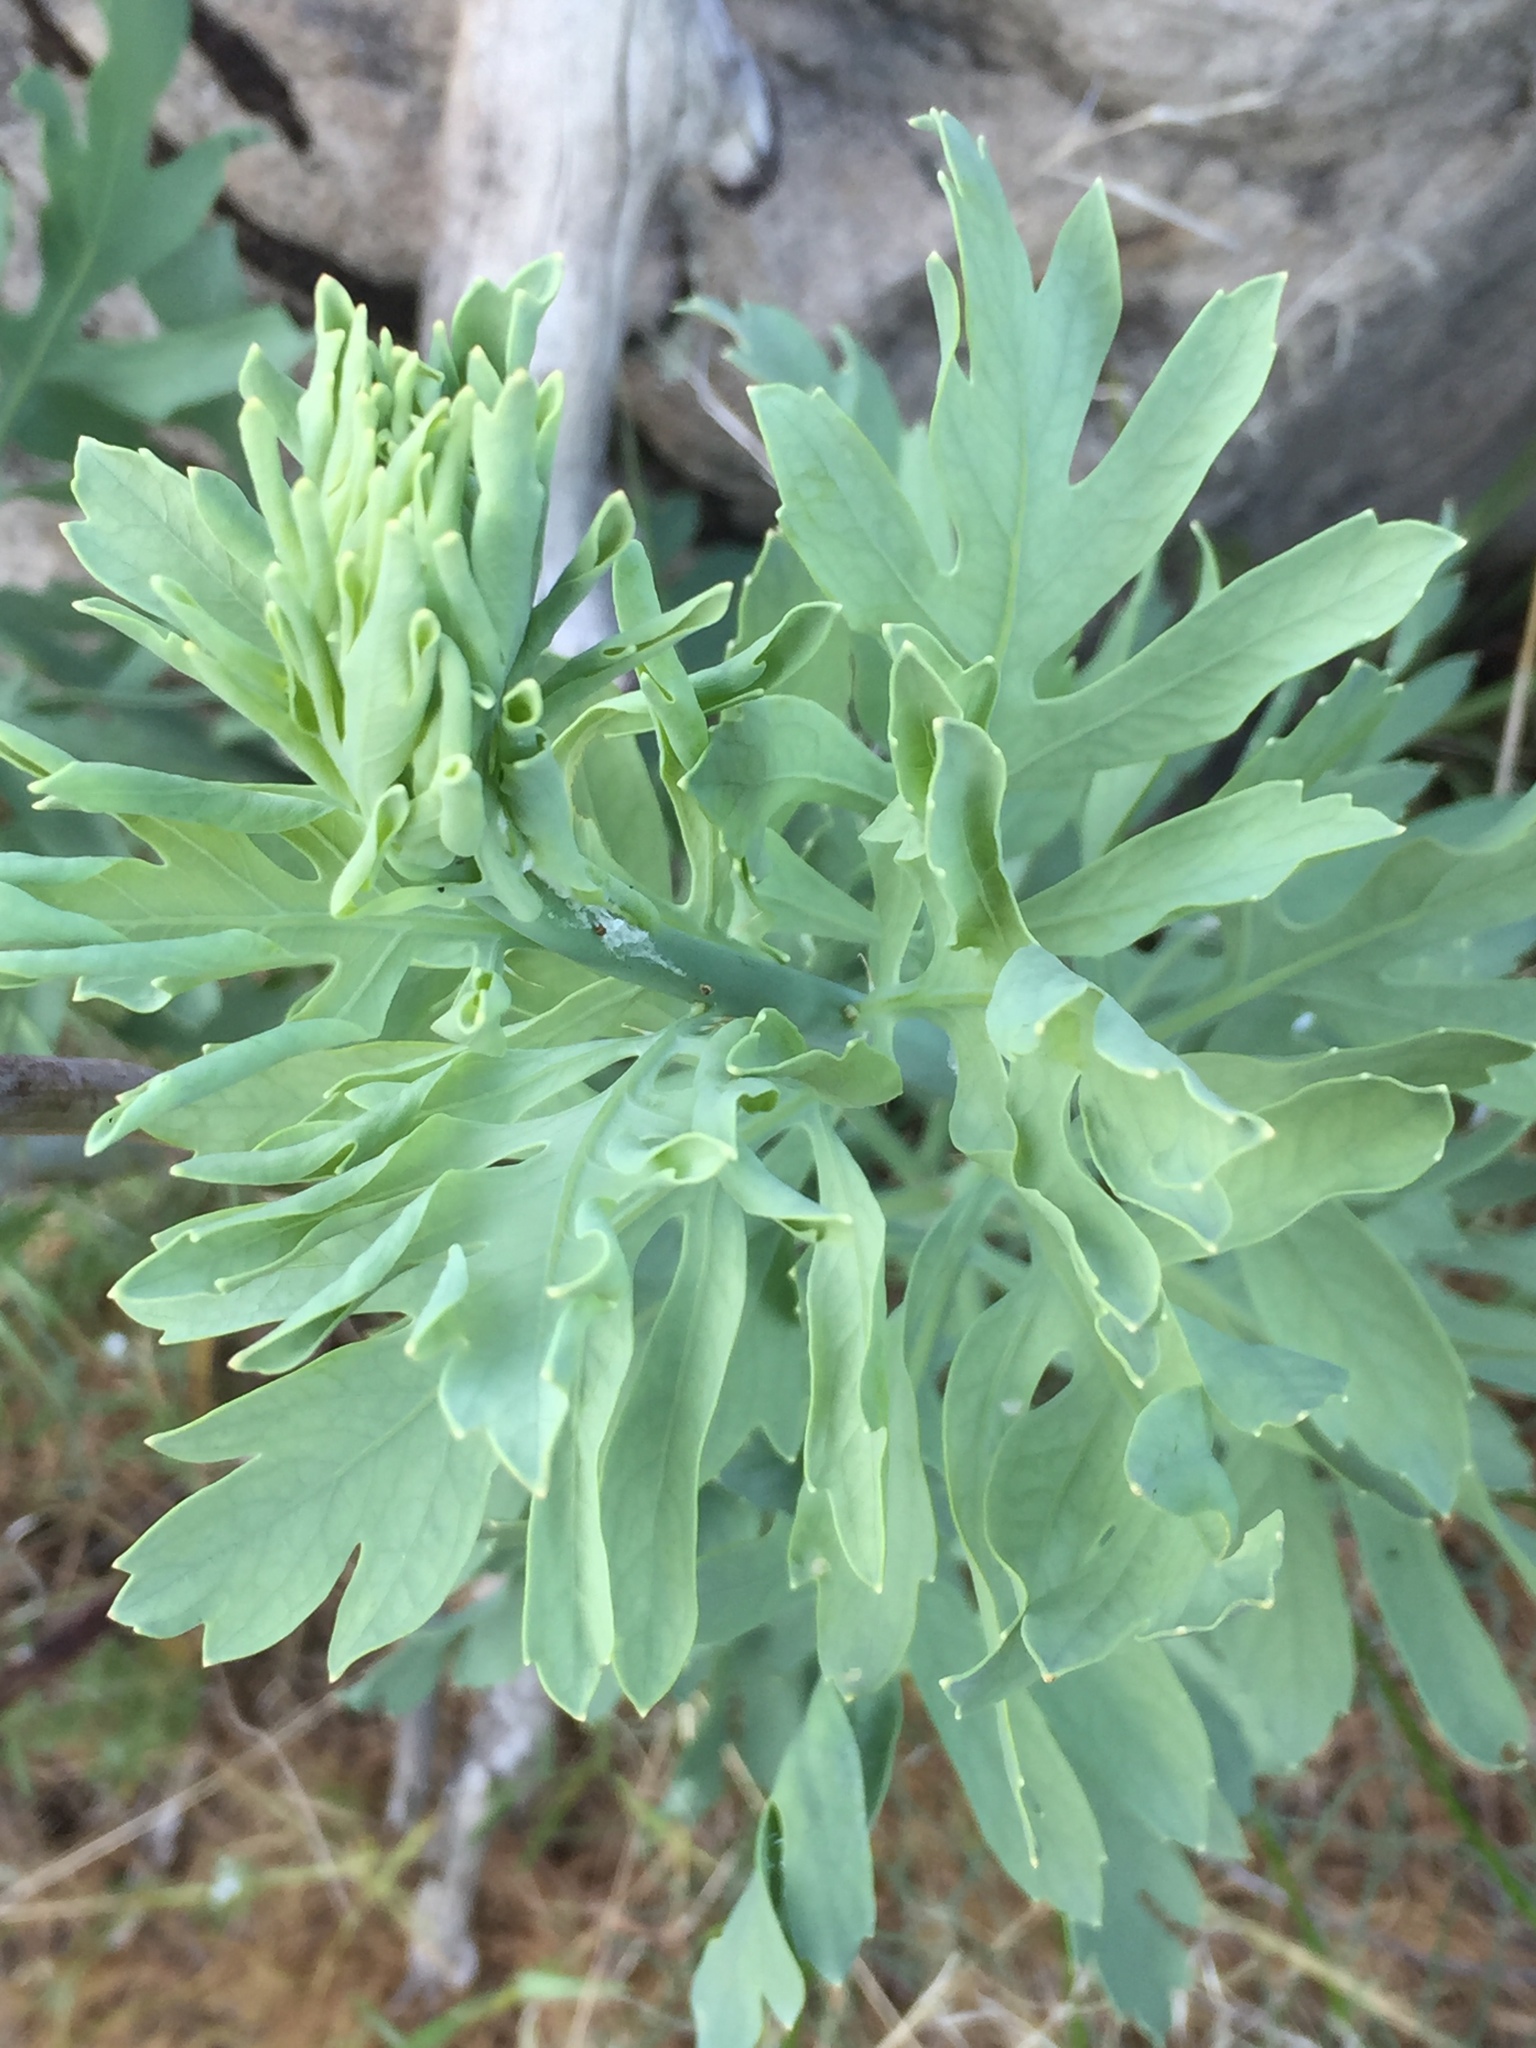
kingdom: Plantae
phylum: Tracheophyta
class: Magnoliopsida
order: Saxifragales
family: Paeoniaceae
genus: Paeonia
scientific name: Paeonia californica
